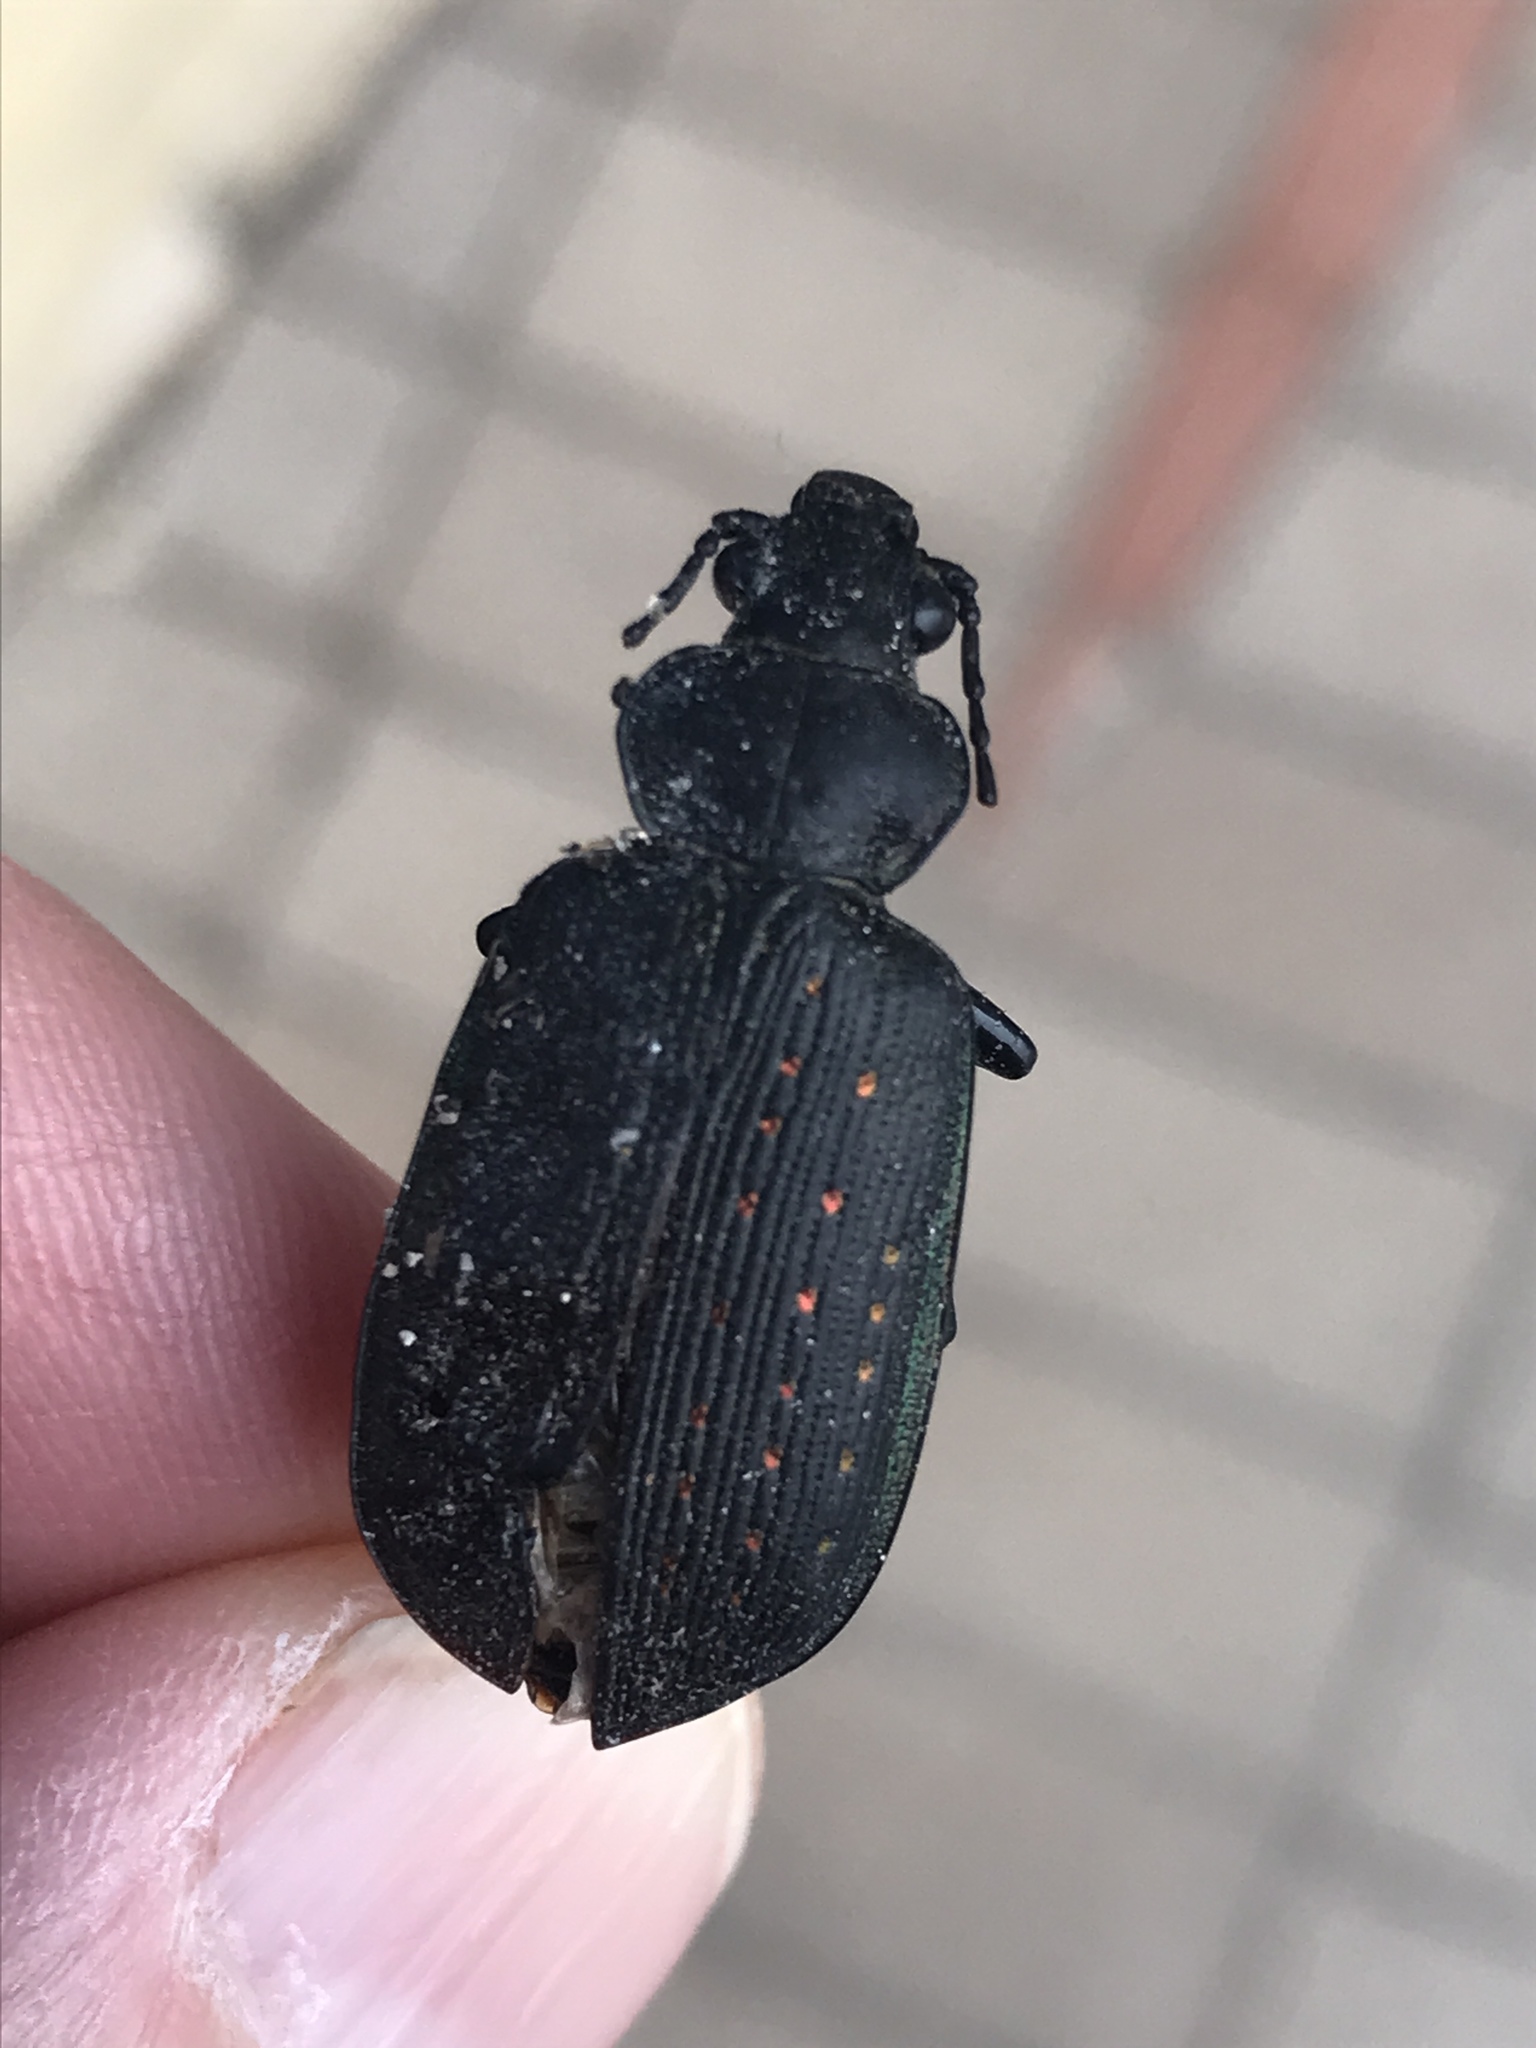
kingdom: Animalia
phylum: Arthropoda
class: Insecta
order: Coleoptera
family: Carabidae
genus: Calosoma
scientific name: Calosoma sayi
